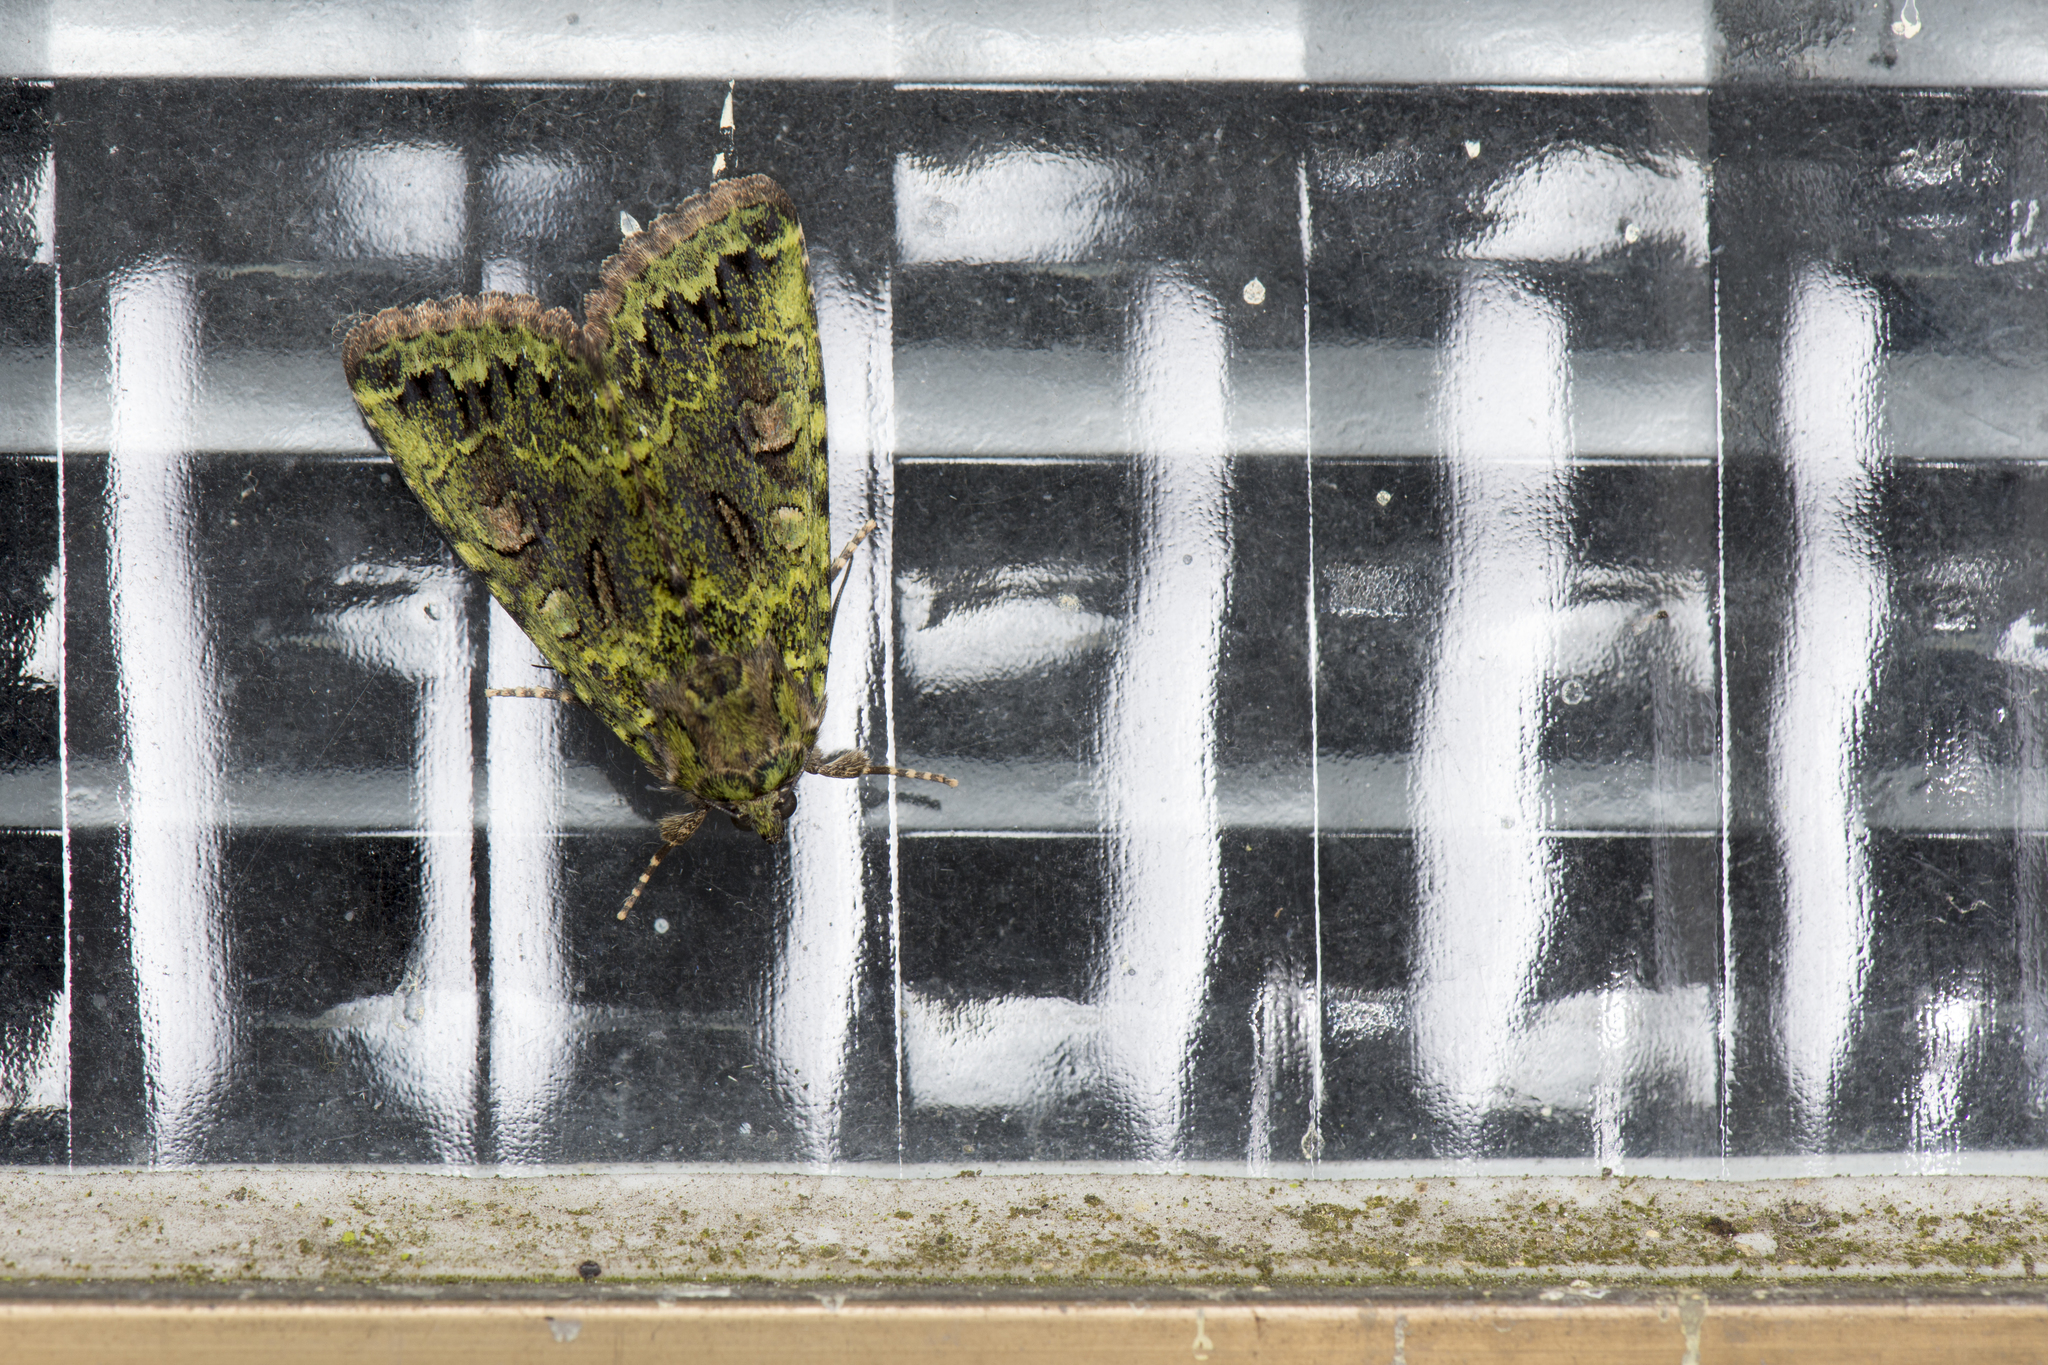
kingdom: Animalia
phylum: Arthropoda
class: Insecta
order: Lepidoptera
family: Noctuidae
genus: Olivenebula
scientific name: Olivenebula oberthueri
